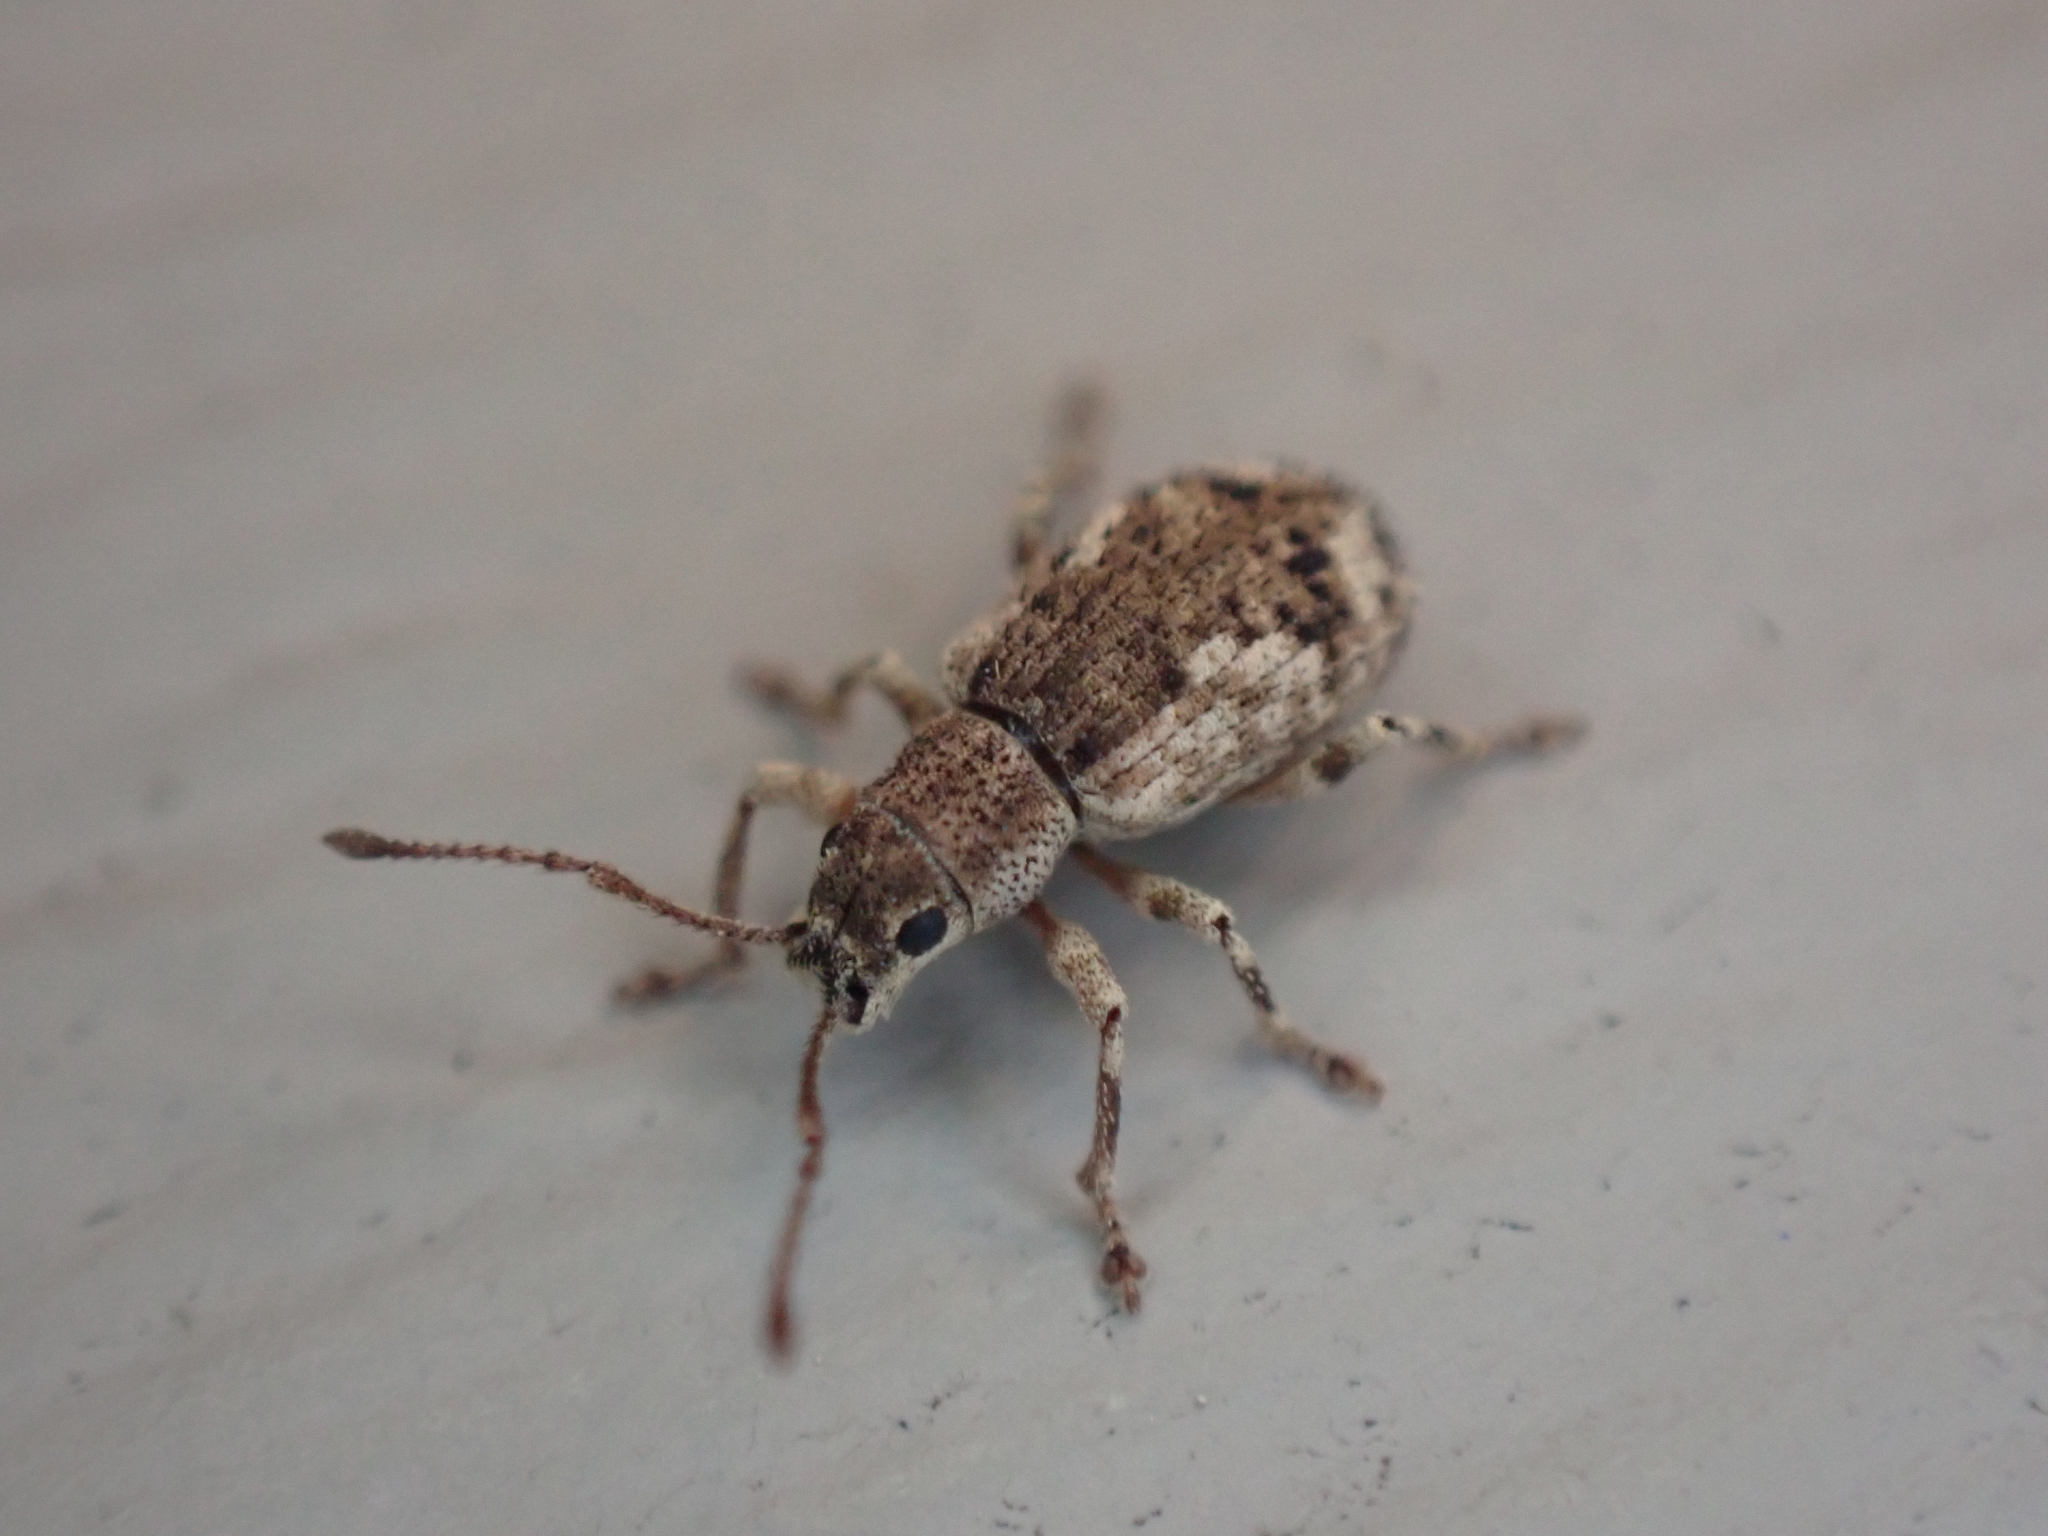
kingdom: Animalia
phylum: Arthropoda
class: Insecta
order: Coleoptera
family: Curculionidae
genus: Pseudoedophrys
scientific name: Pseudoedophrys hilleri
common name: Weevil
